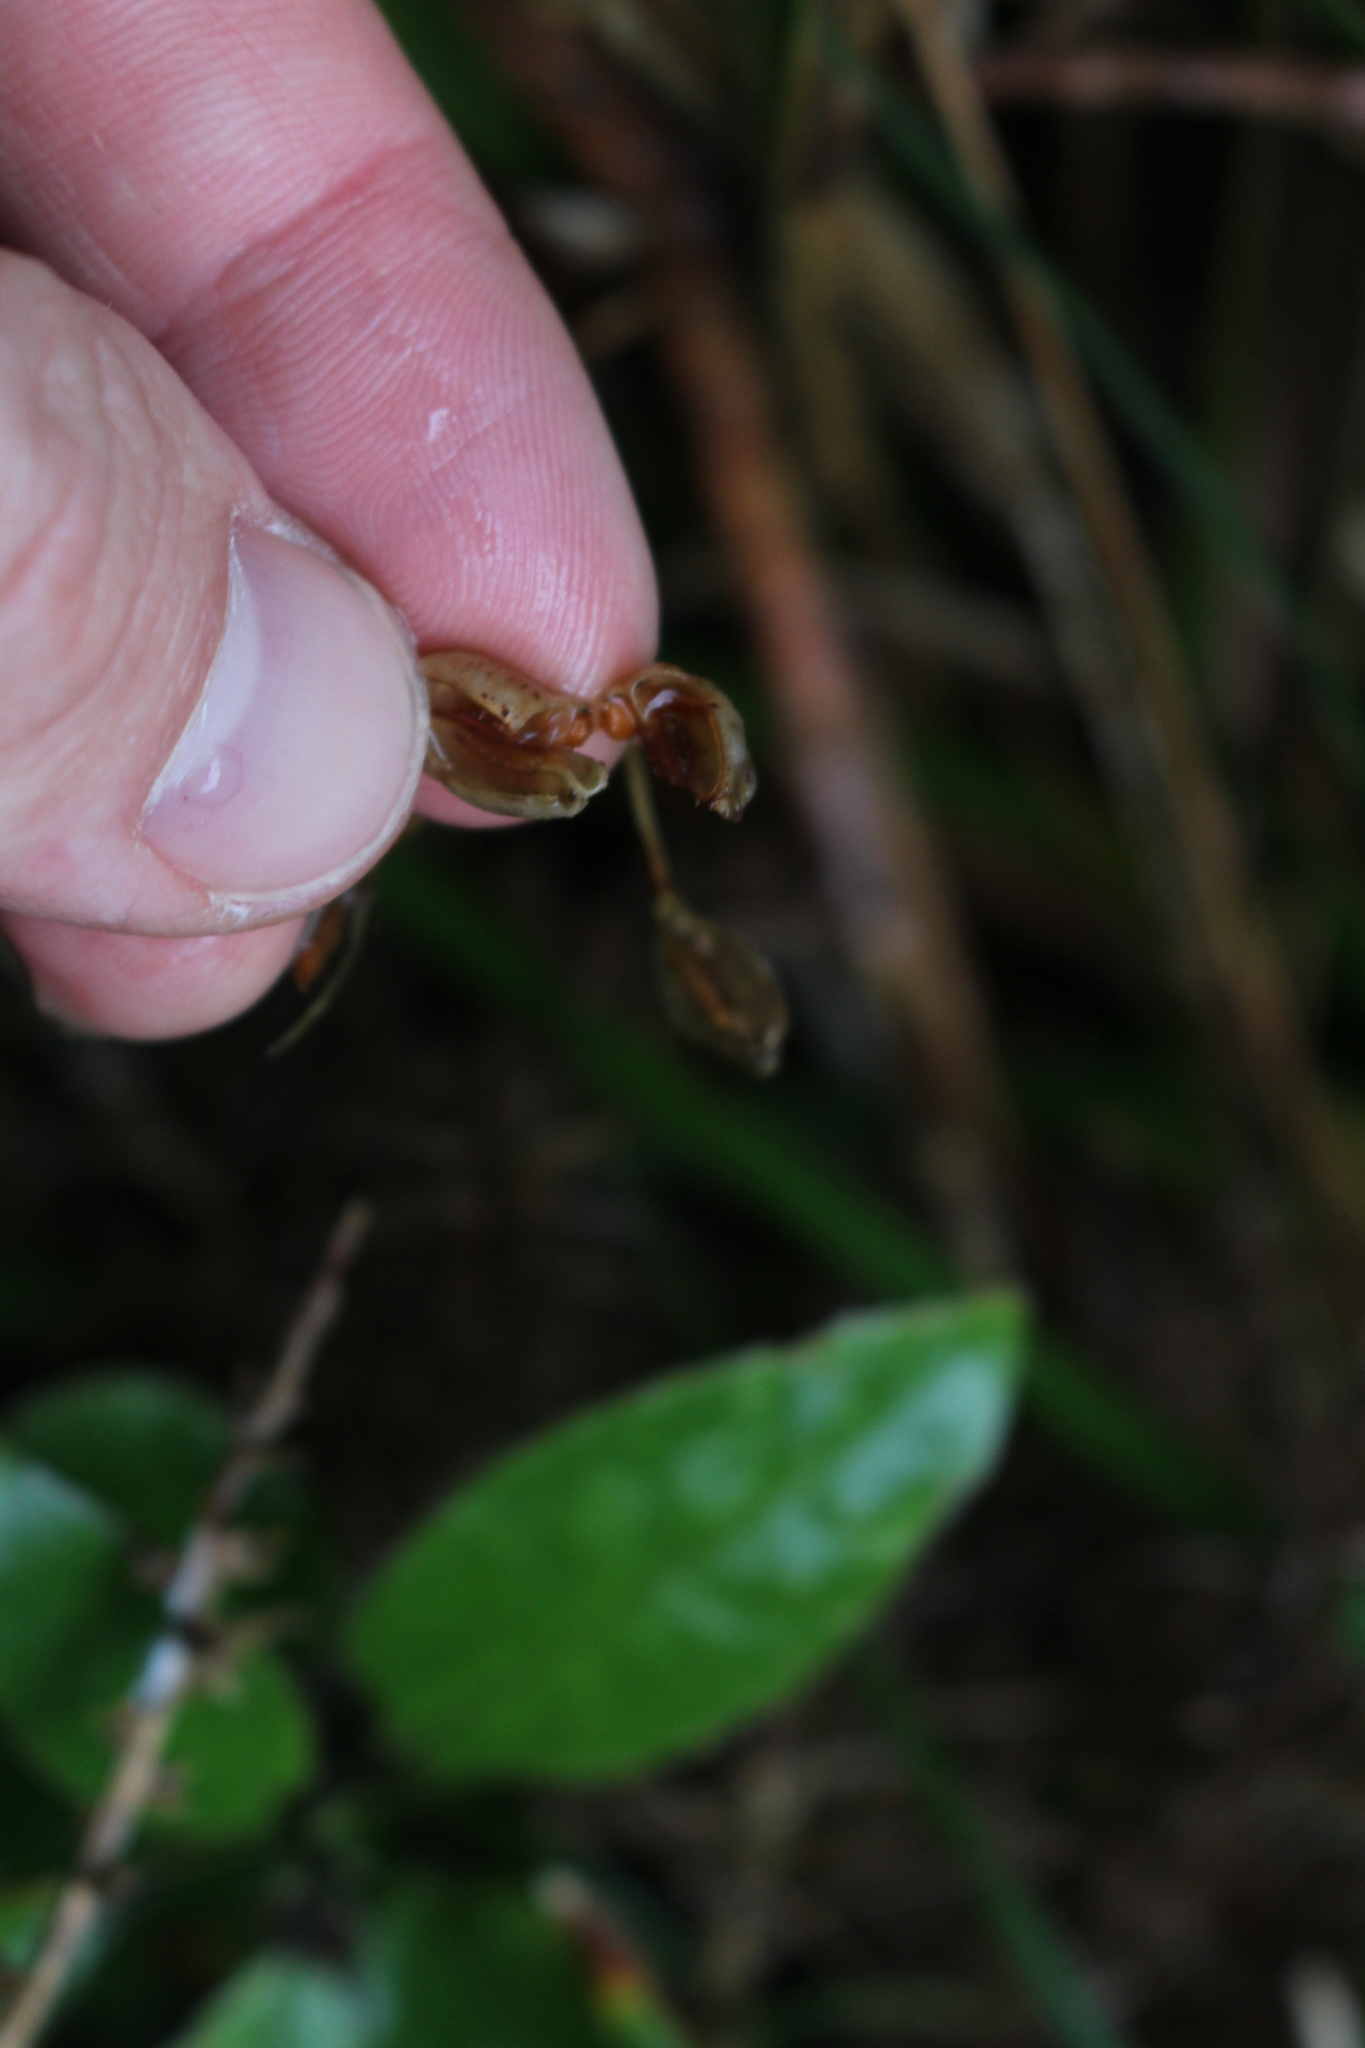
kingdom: Plantae
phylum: Tracheophyta
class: Liliopsida
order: Asparagales
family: Iridaceae
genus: Libertia
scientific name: Libertia ixioides
